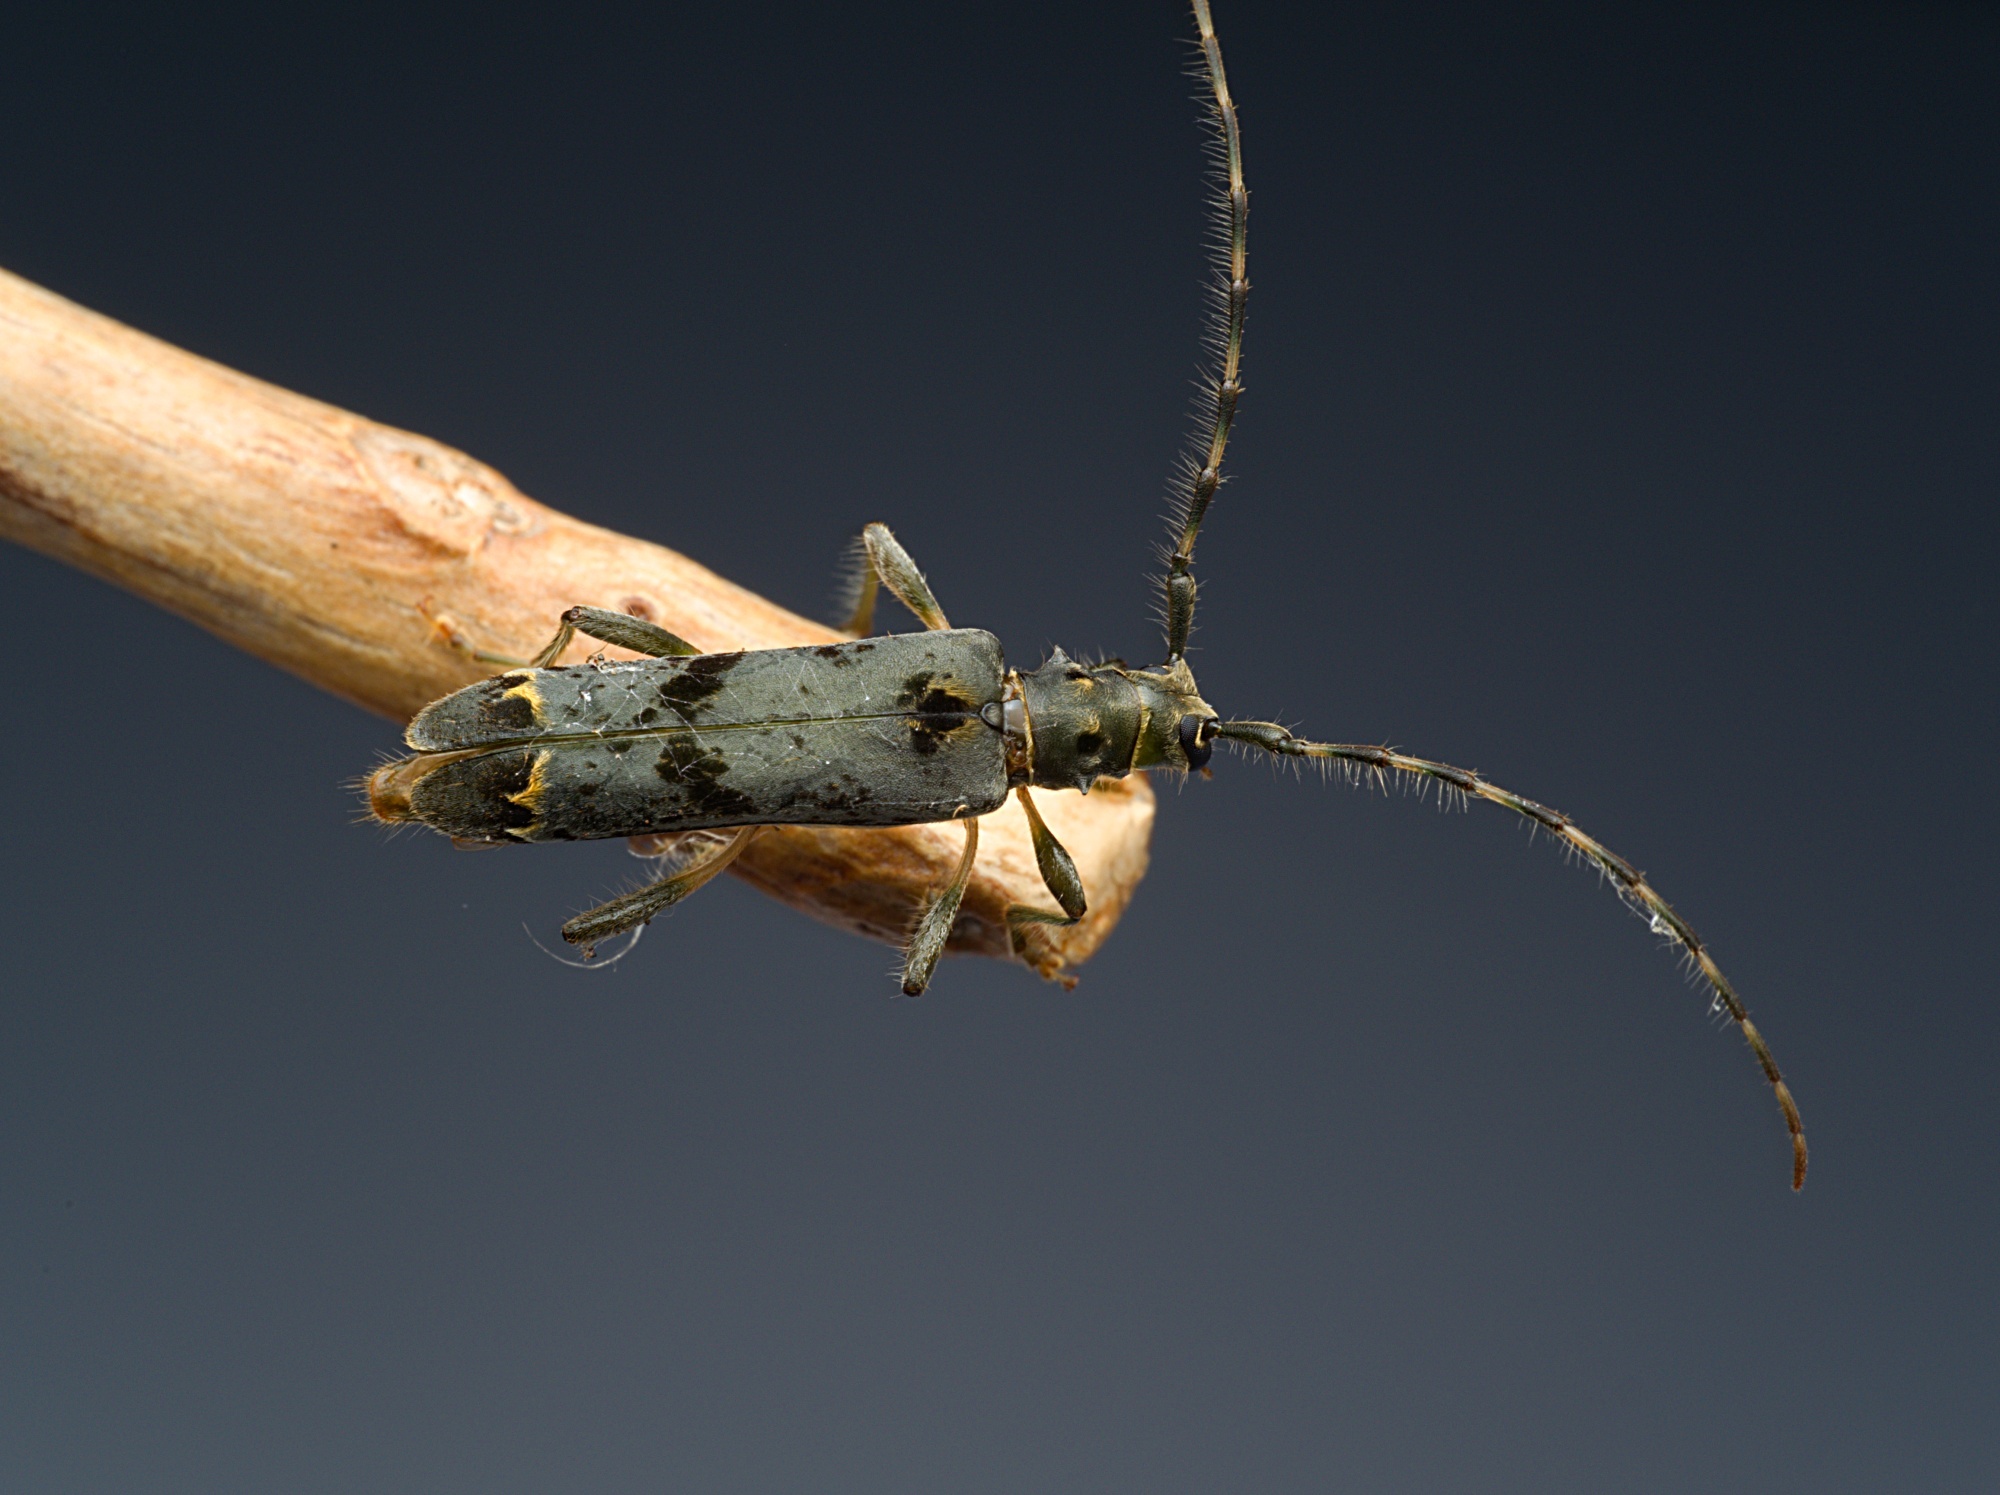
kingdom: Animalia
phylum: Arthropoda
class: Insecta
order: Coleoptera
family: Cerambycidae
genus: Agapanthida
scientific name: Agapanthida pulchella
